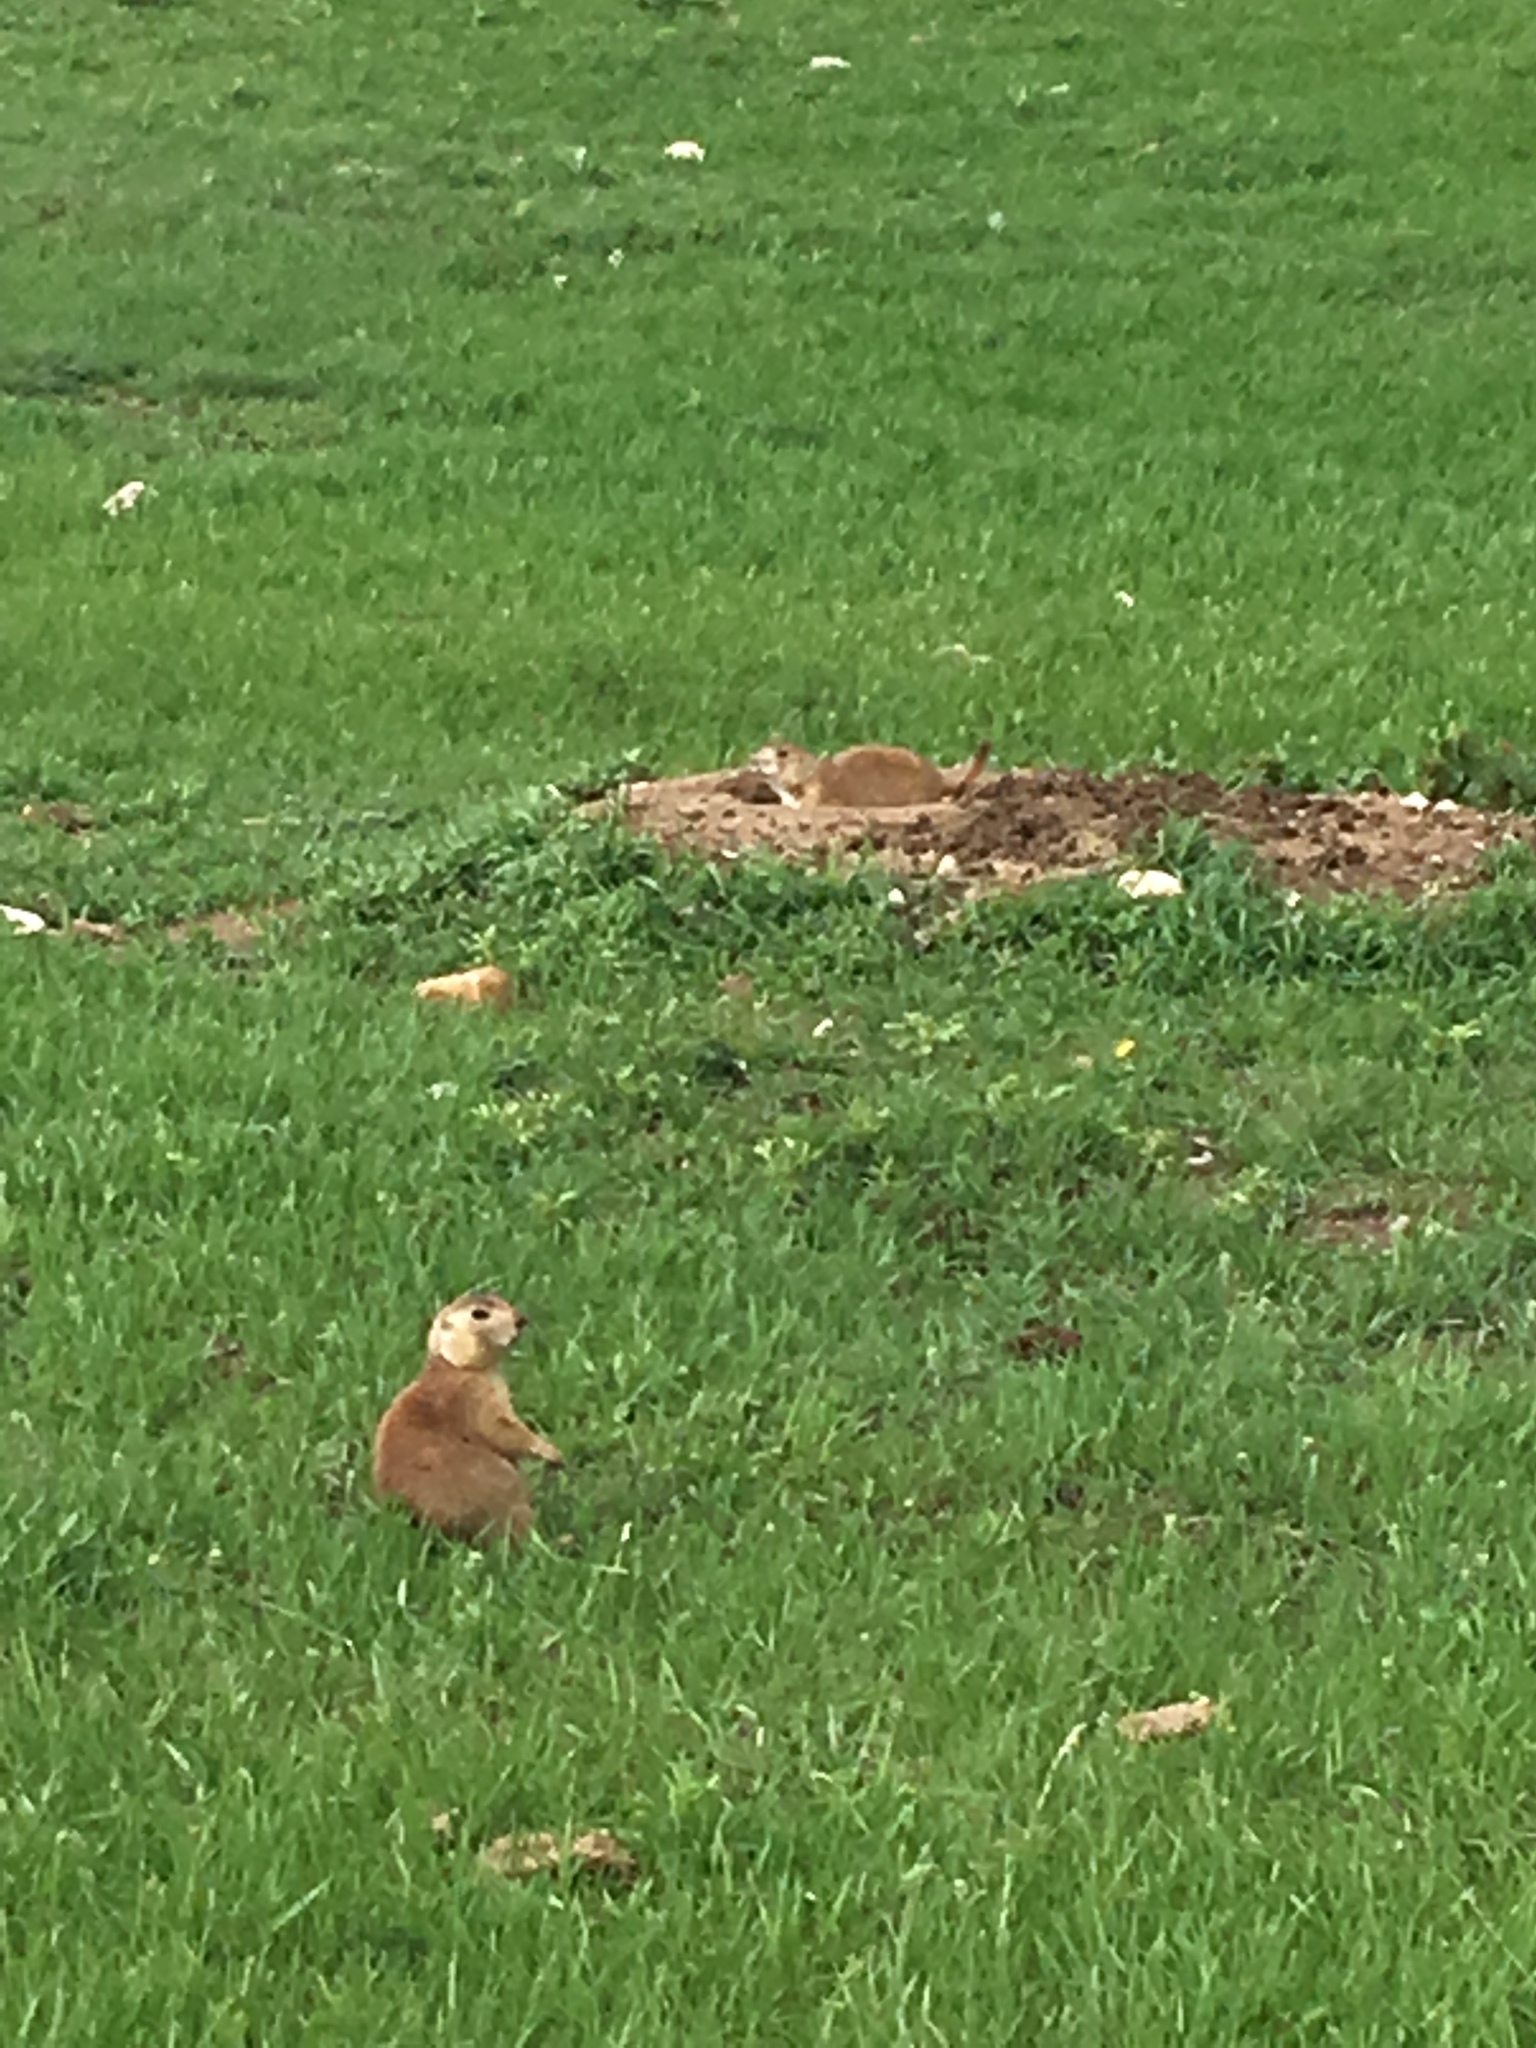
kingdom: Animalia
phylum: Chordata
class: Mammalia
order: Rodentia
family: Sciuridae
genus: Cynomys
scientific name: Cynomys ludovicianus
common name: Black-tailed prairie dog
